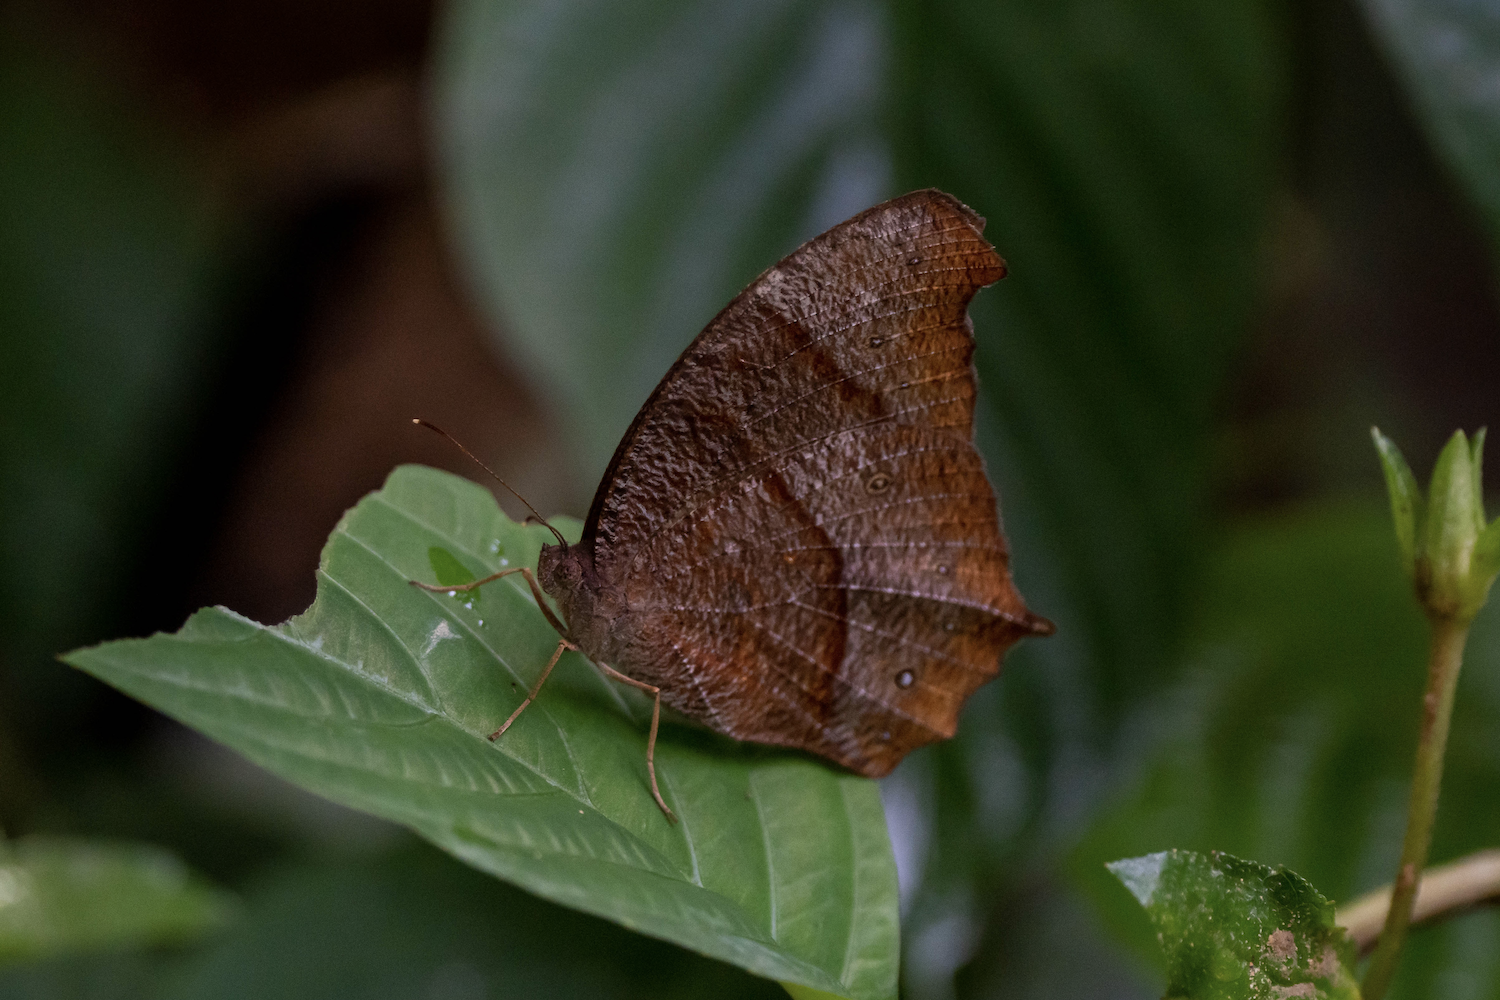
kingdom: Animalia
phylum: Arthropoda
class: Insecta
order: Lepidoptera
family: Nymphalidae
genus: Melanitis
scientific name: Melanitis phedima
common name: Dark evening brown
